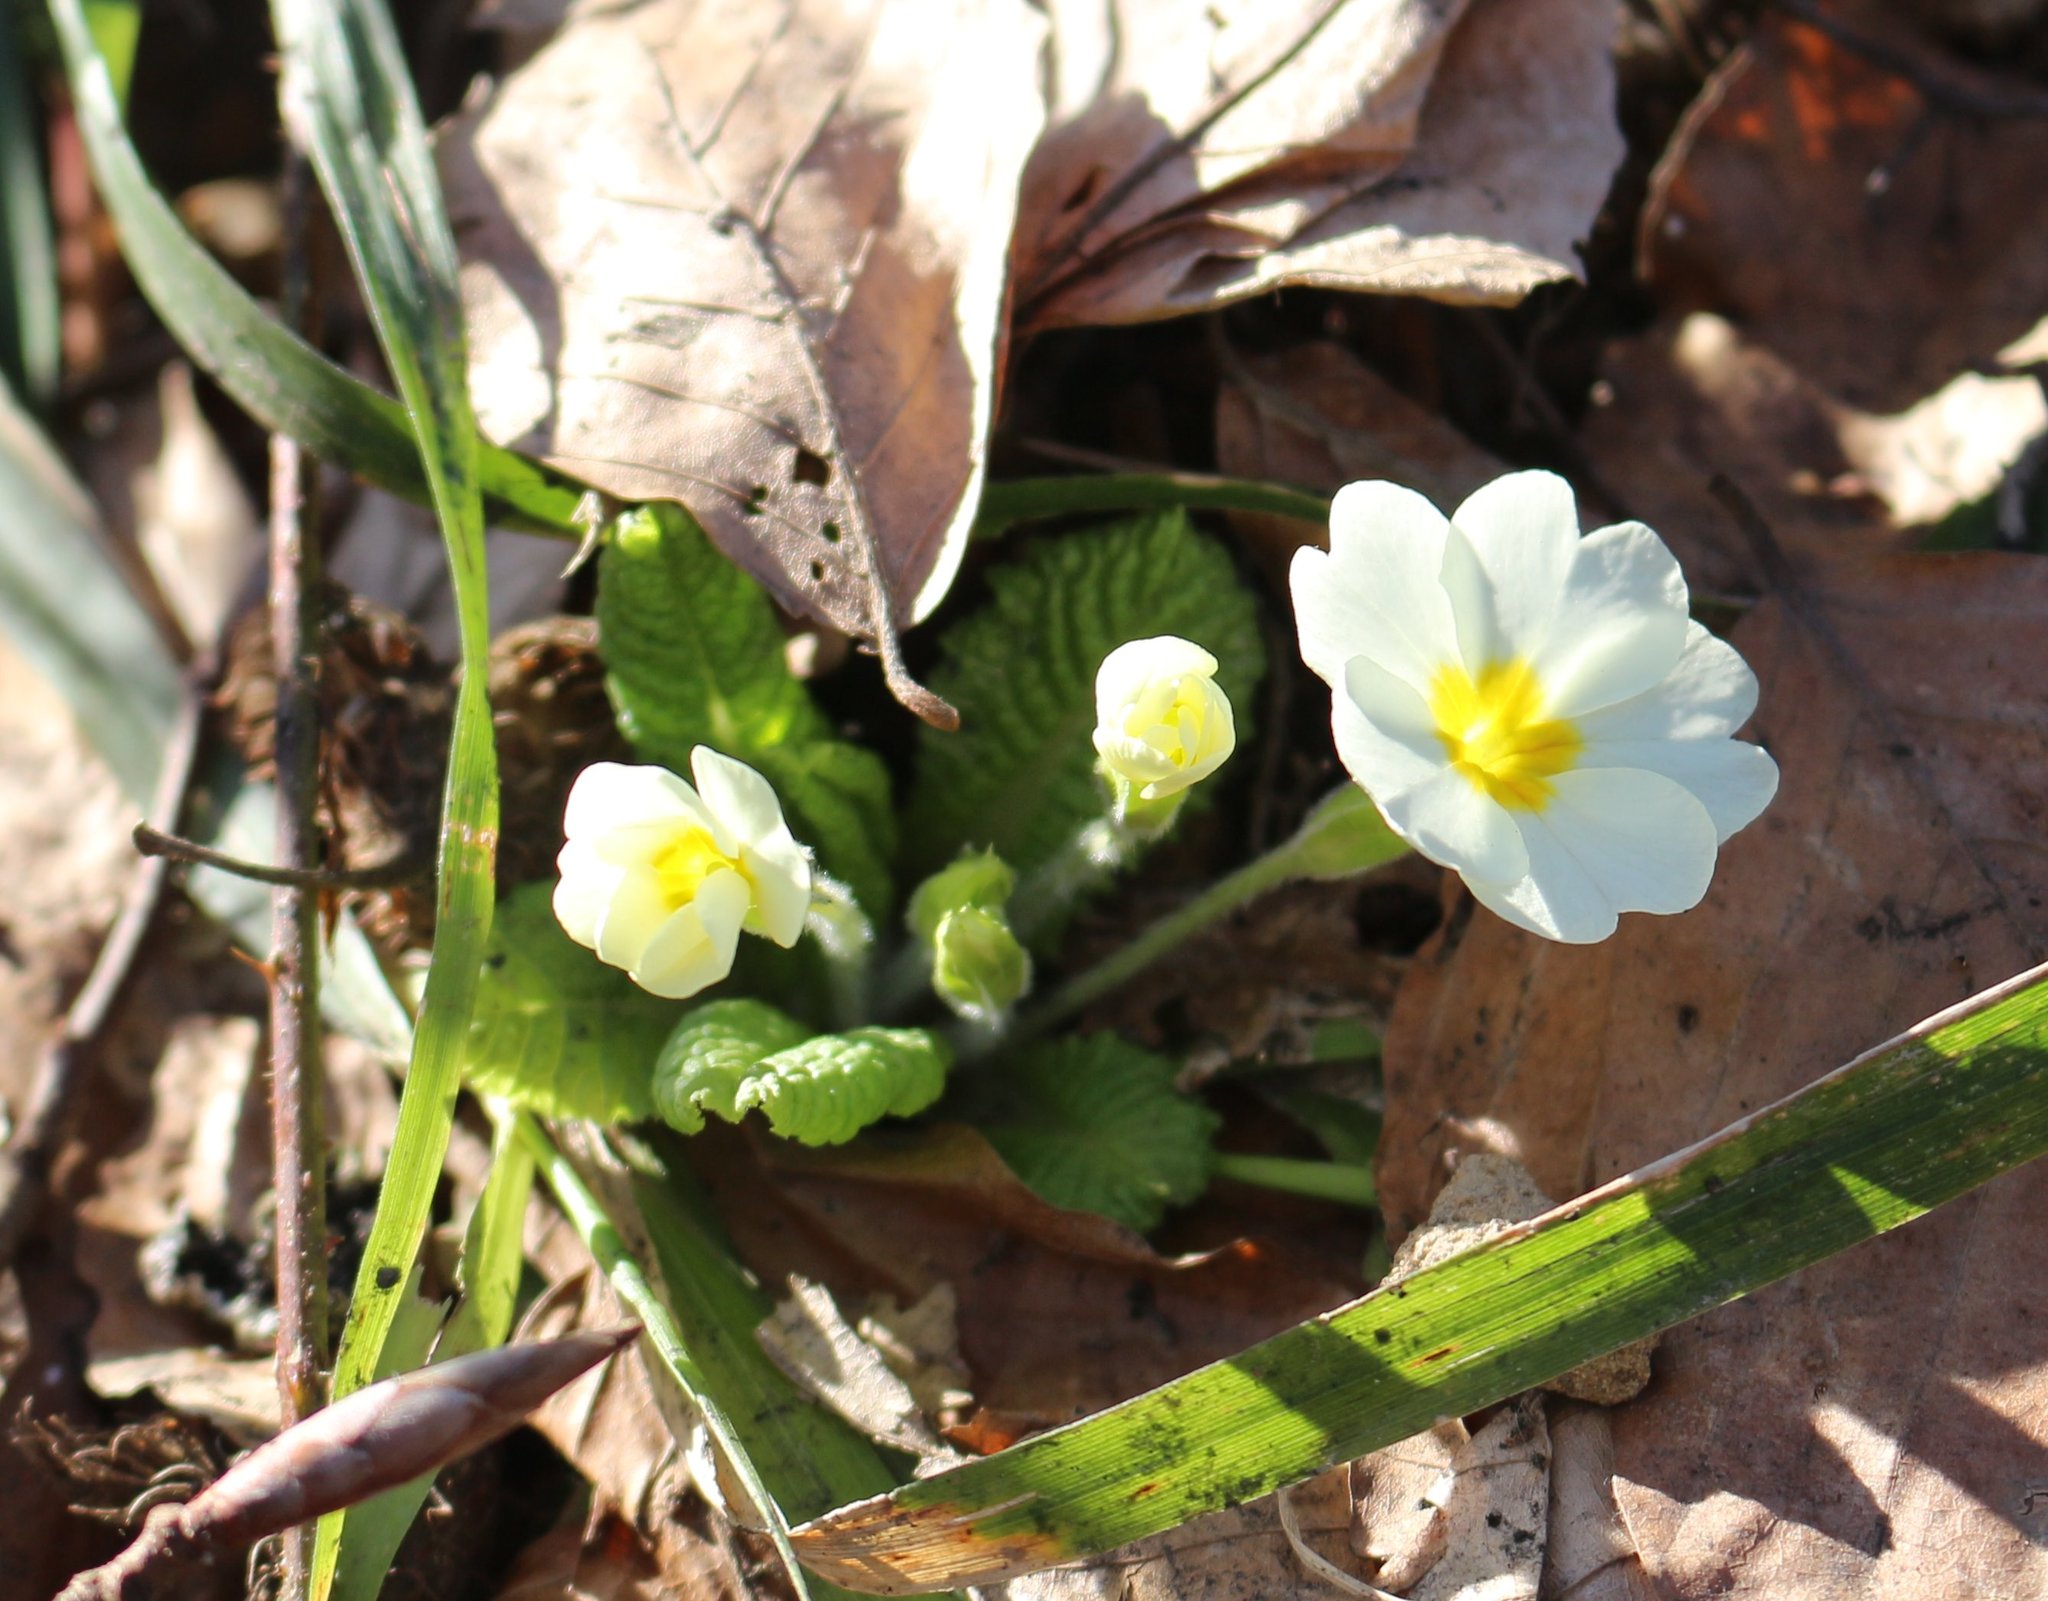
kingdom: Plantae
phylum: Tracheophyta
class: Magnoliopsida
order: Ericales
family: Primulaceae
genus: Primula
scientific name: Primula vulgaris
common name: Primrose
